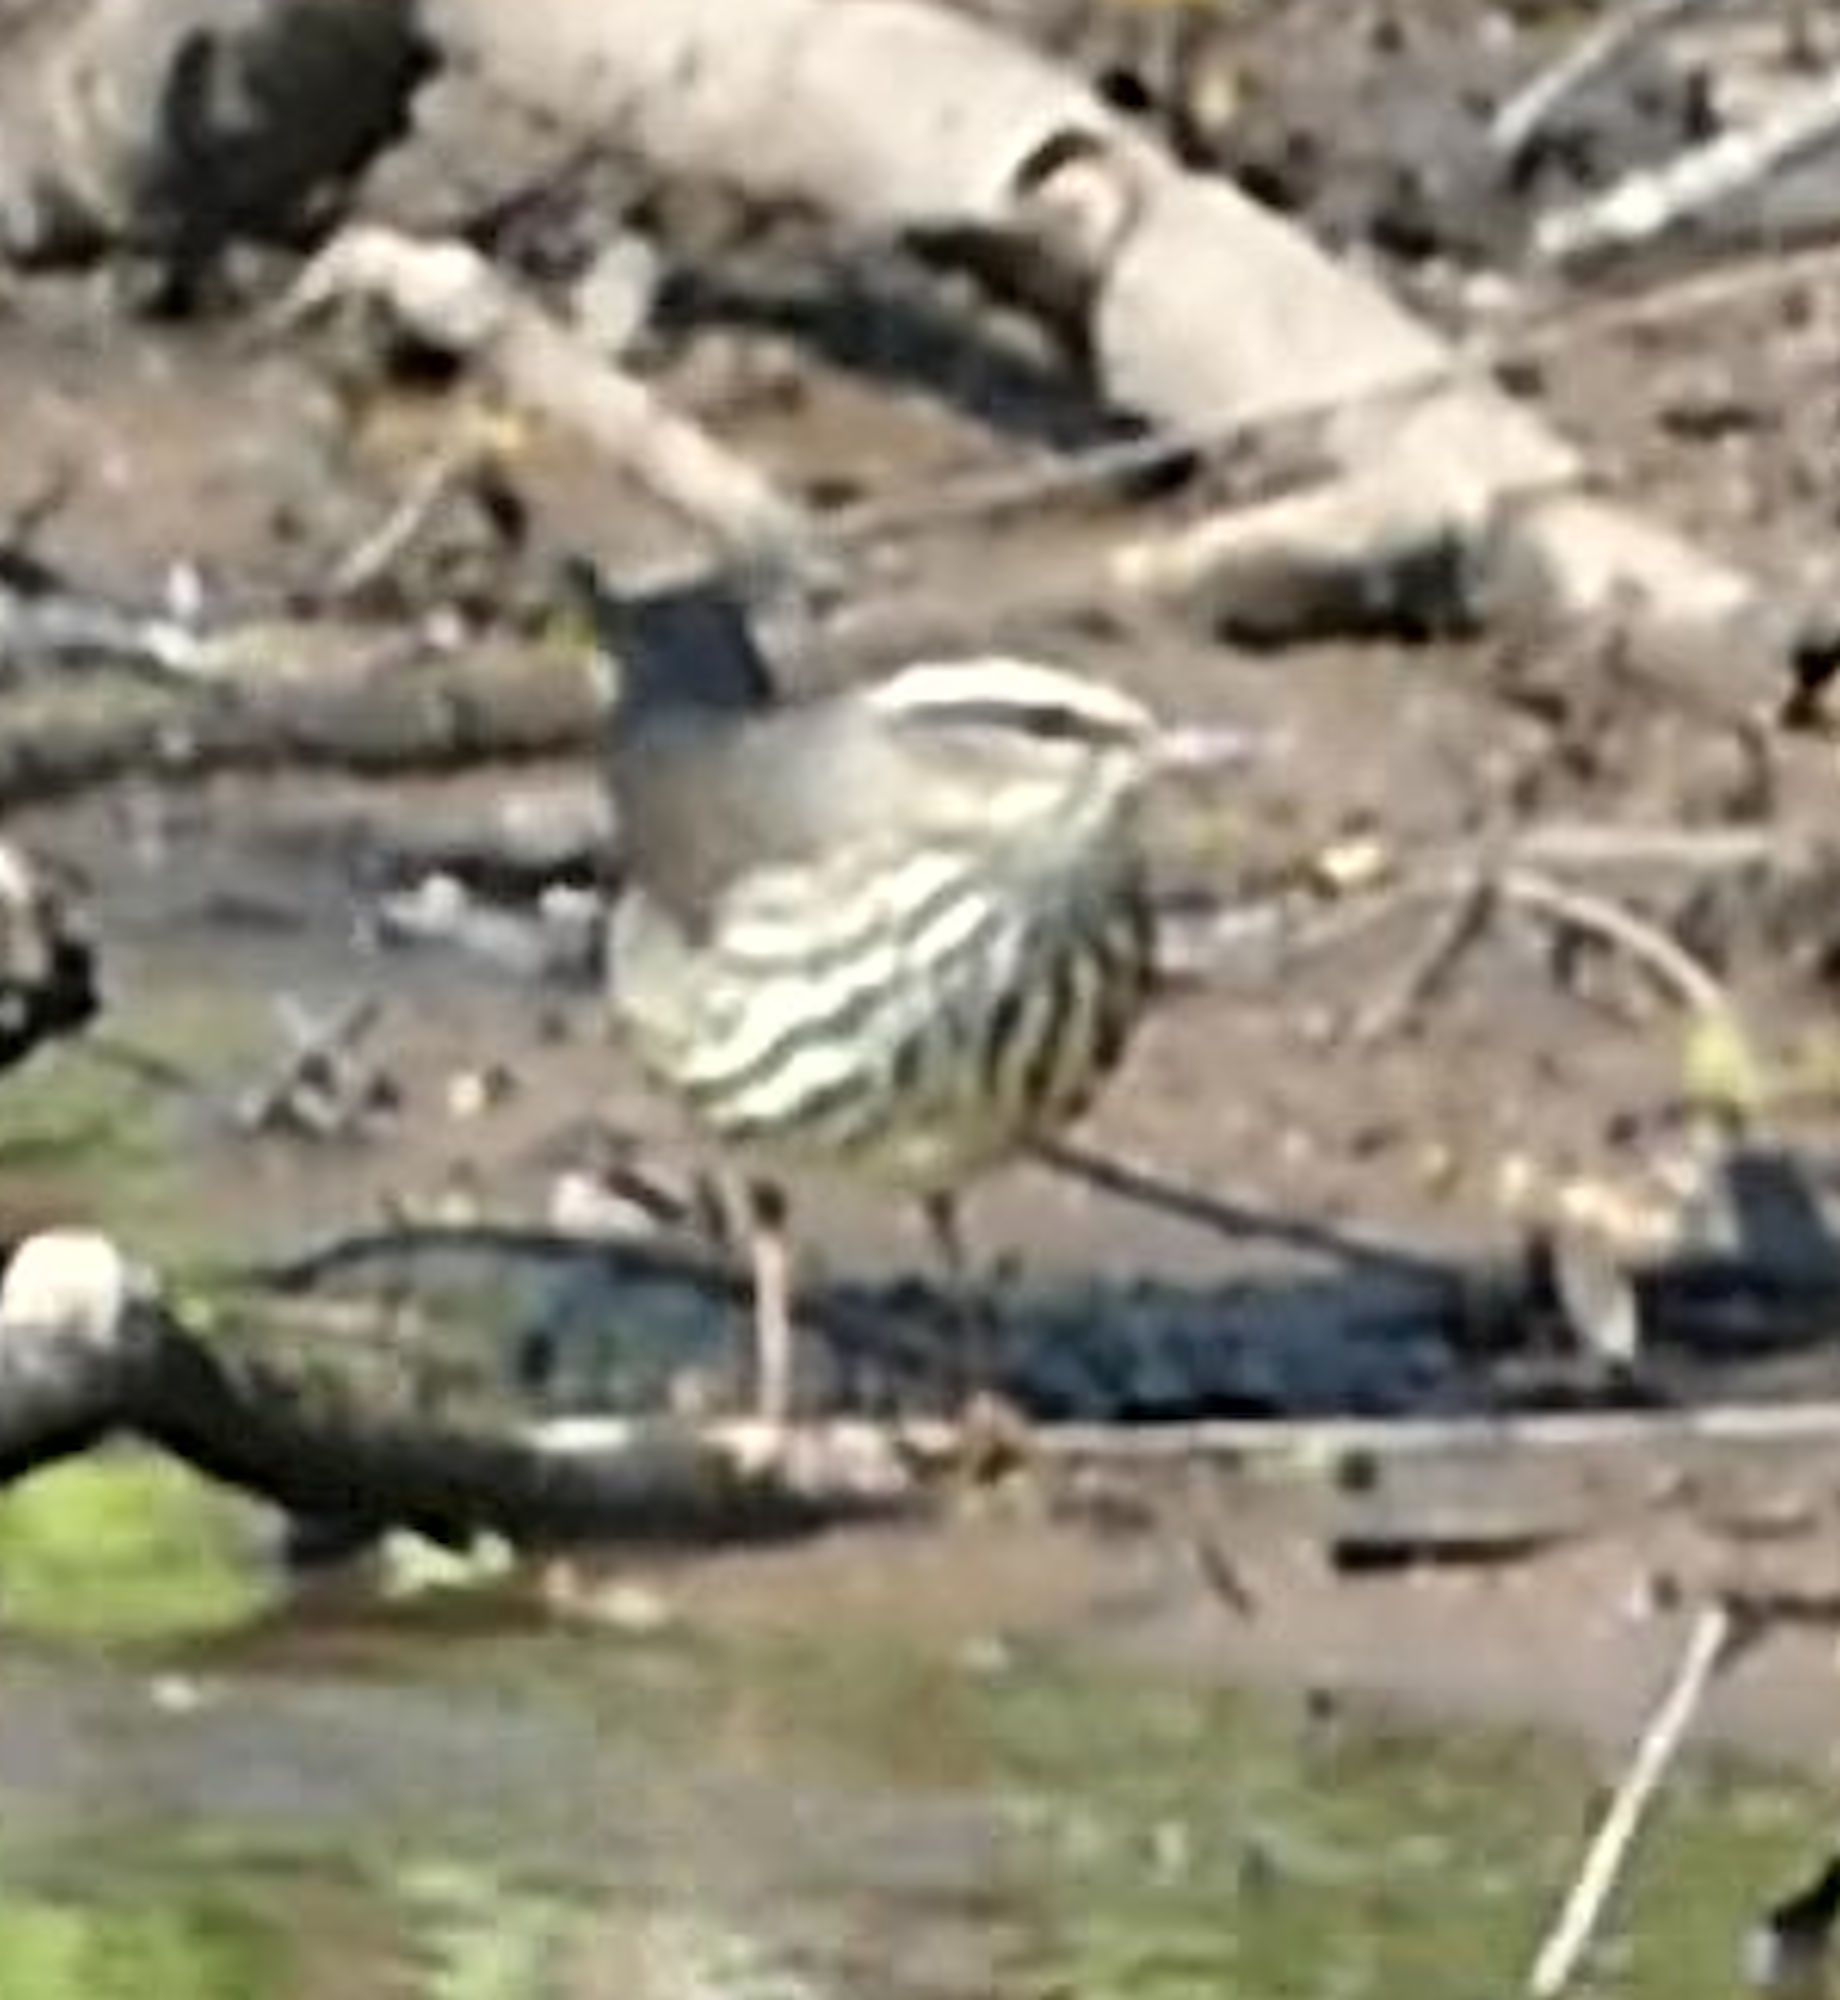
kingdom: Animalia
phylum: Chordata
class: Aves
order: Passeriformes
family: Parulidae
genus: Parkesia
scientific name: Parkesia motacilla
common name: Louisiana waterthrush
